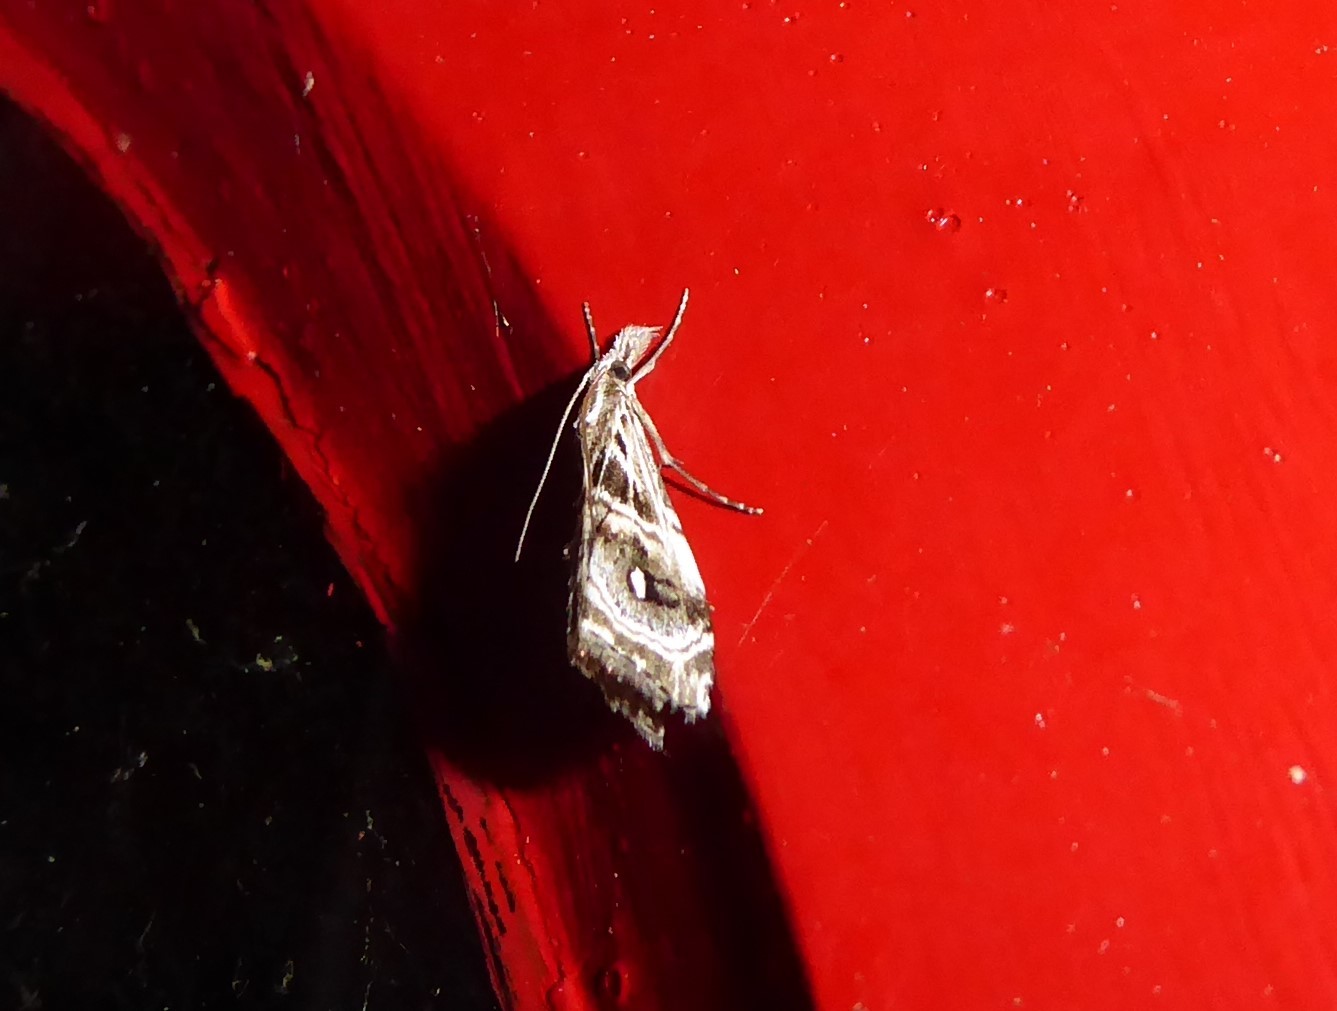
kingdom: Animalia
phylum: Arthropoda
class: Insecta
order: Lepidoptera
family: Crambidae
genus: Gadira
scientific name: Gadira acerella
